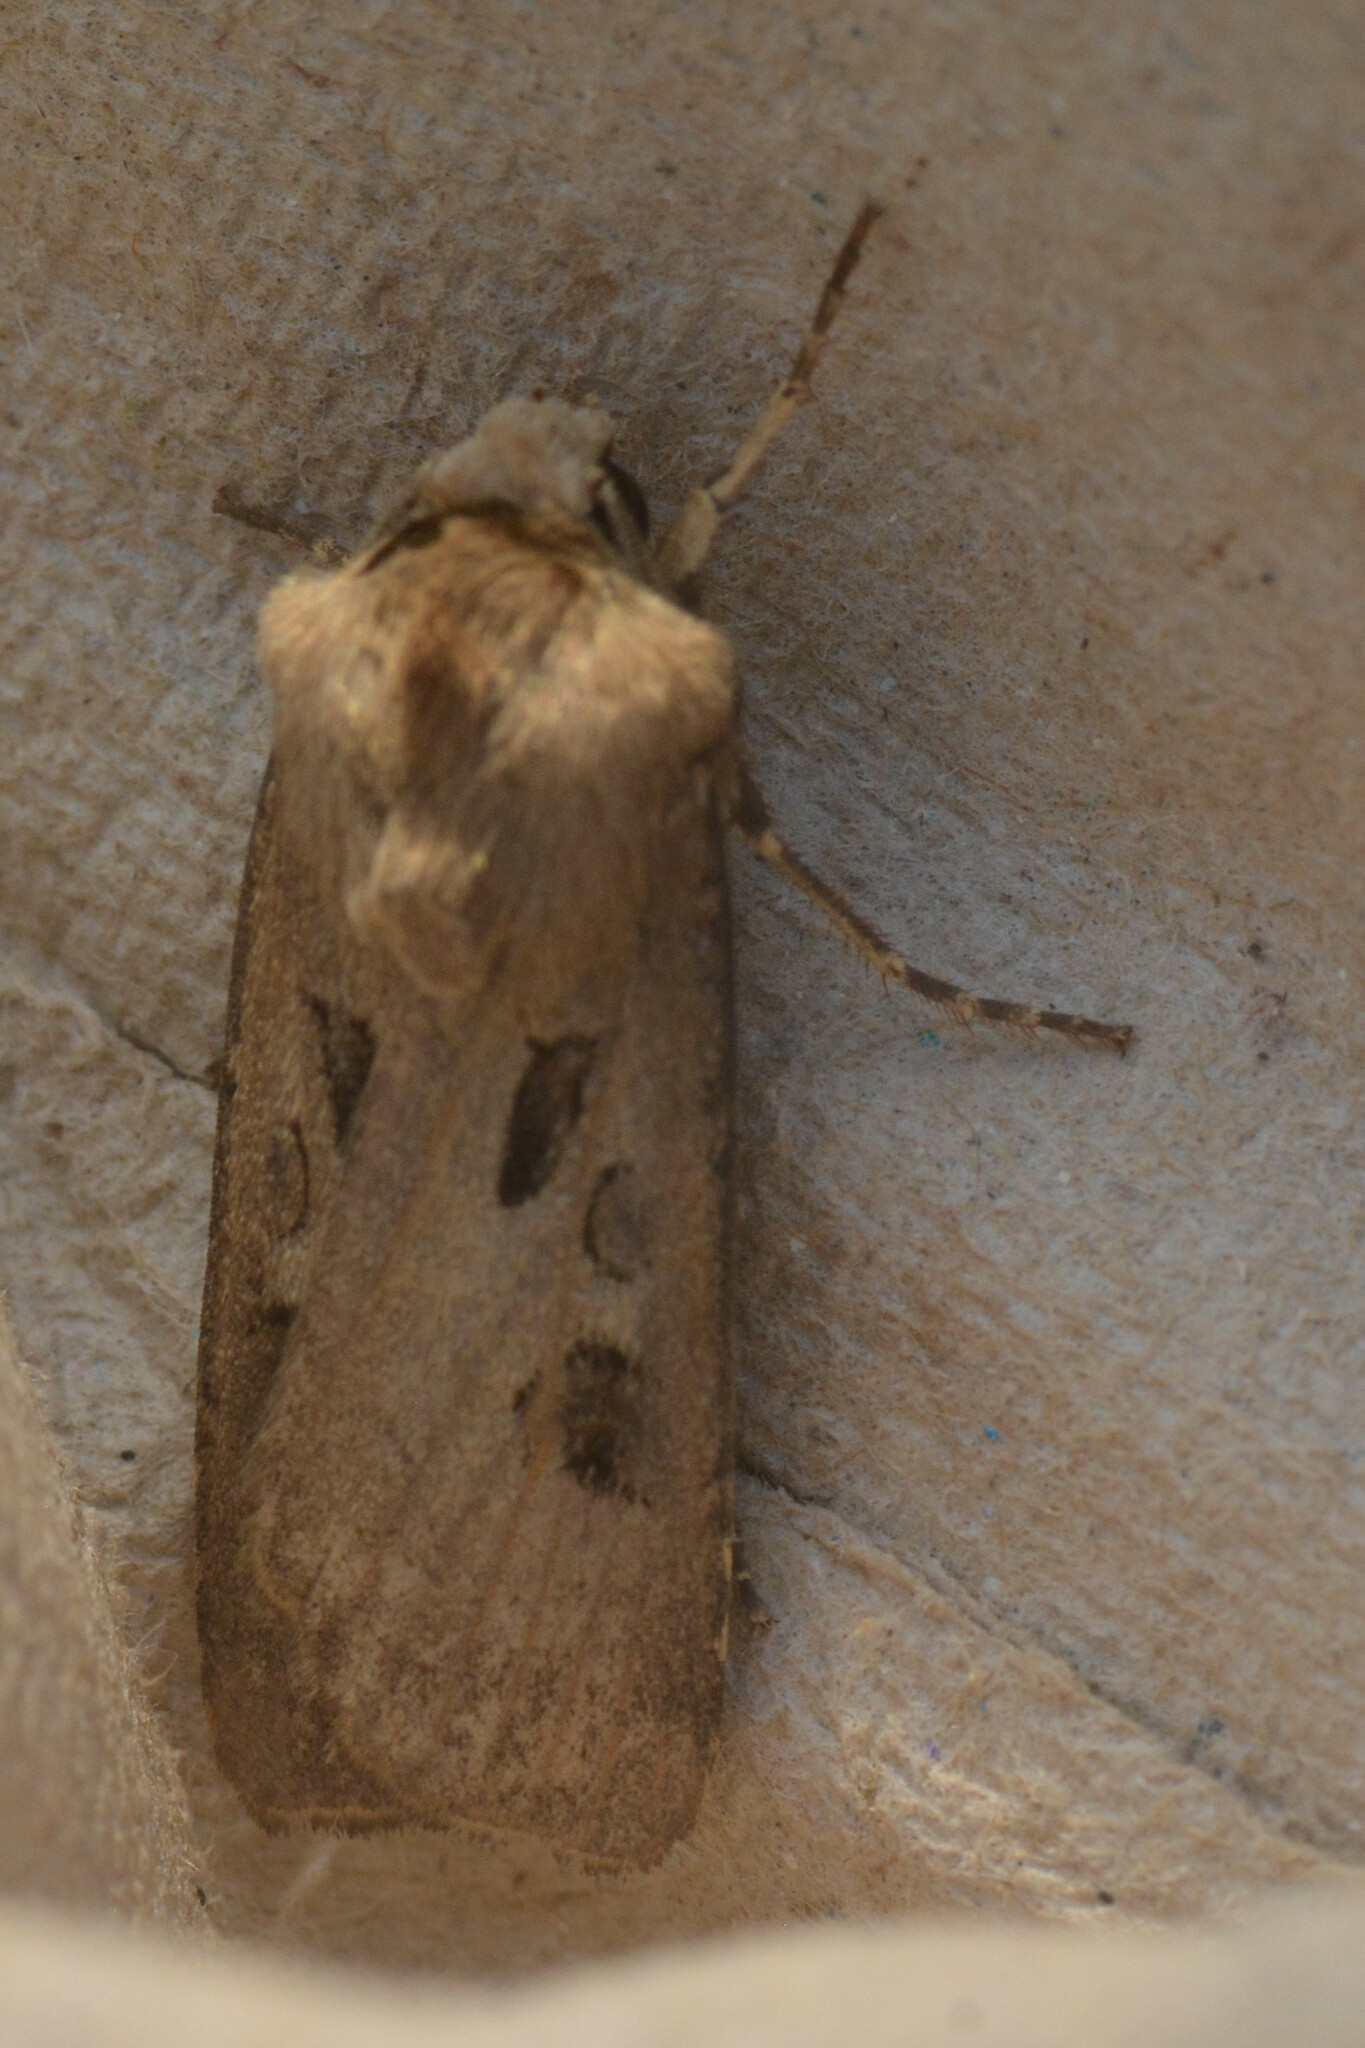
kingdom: Animalia
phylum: Arthropoda
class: Insecta
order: Lepidoptera
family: Noctuidae
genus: Agrotis
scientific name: Agrotis exclamationis
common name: Heart and dart
